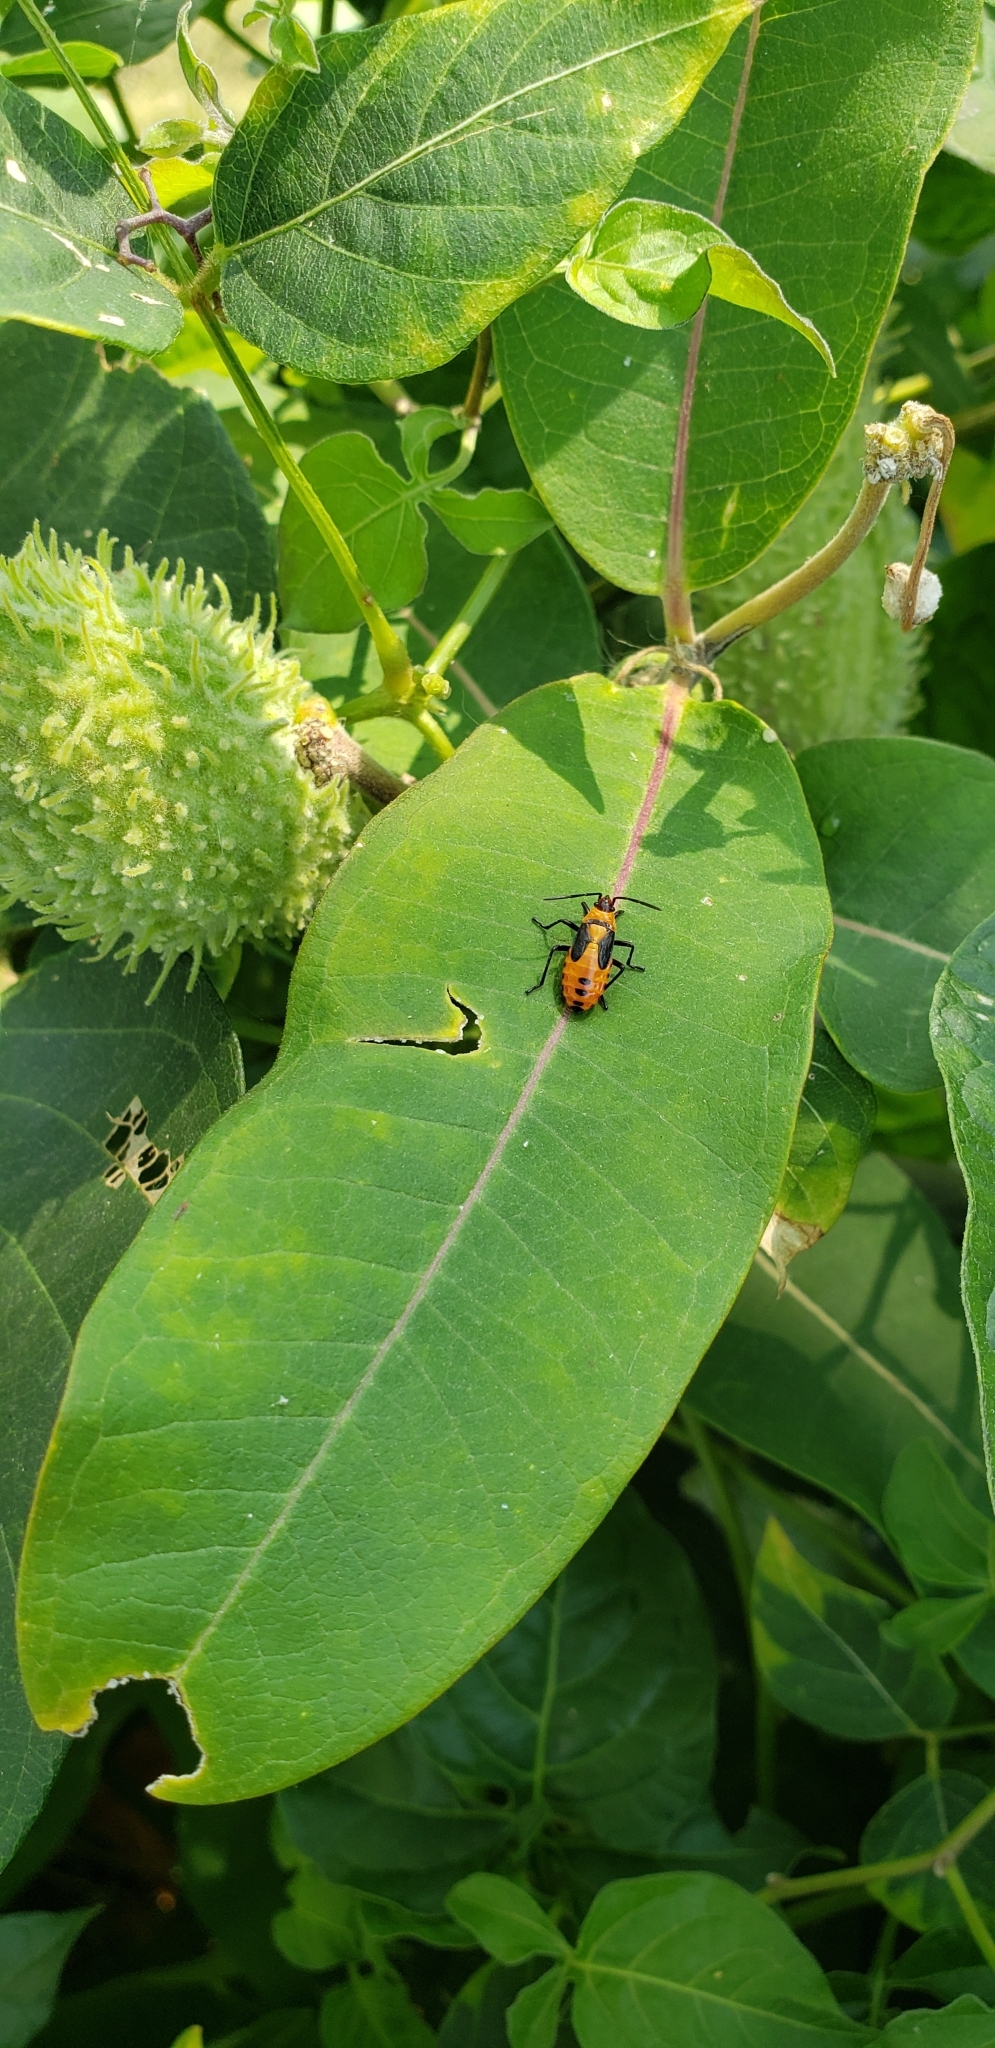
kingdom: Animalia
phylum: Arthropoda
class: Insecta
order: Hemiptera
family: Lygaeidae
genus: Oncopeltus
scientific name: Oncopeltus fasciatus
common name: Large milkweed bug
